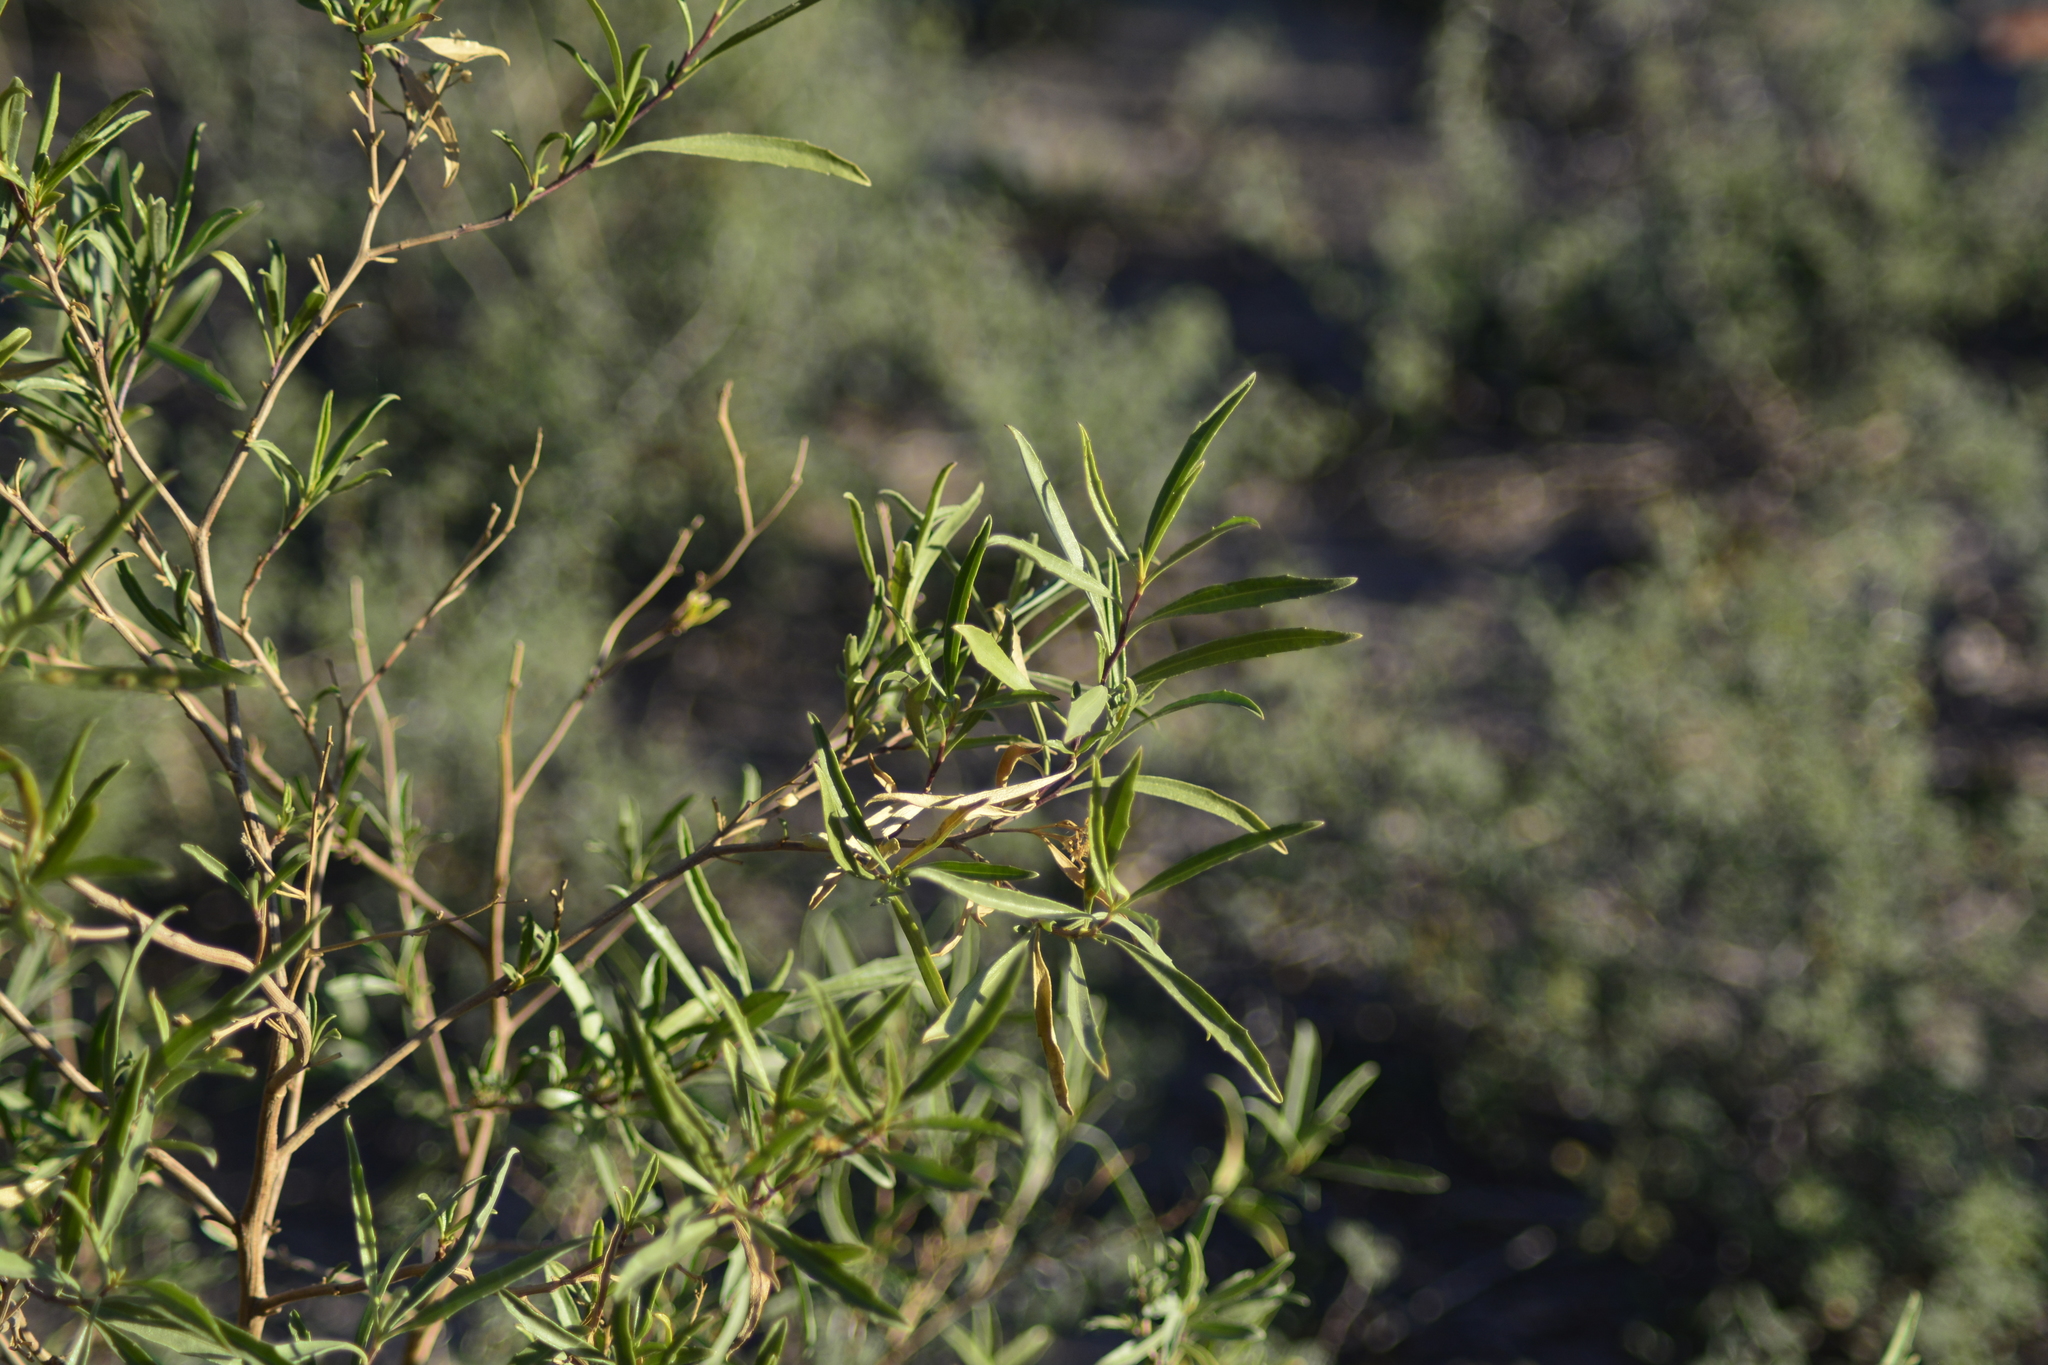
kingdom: Plantae
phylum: Tracheophyta
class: Magnoliopsida
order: Asterales
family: Asteraceae
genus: Baccharis
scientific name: Baccharis salicifolia
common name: Sticky baccharis
